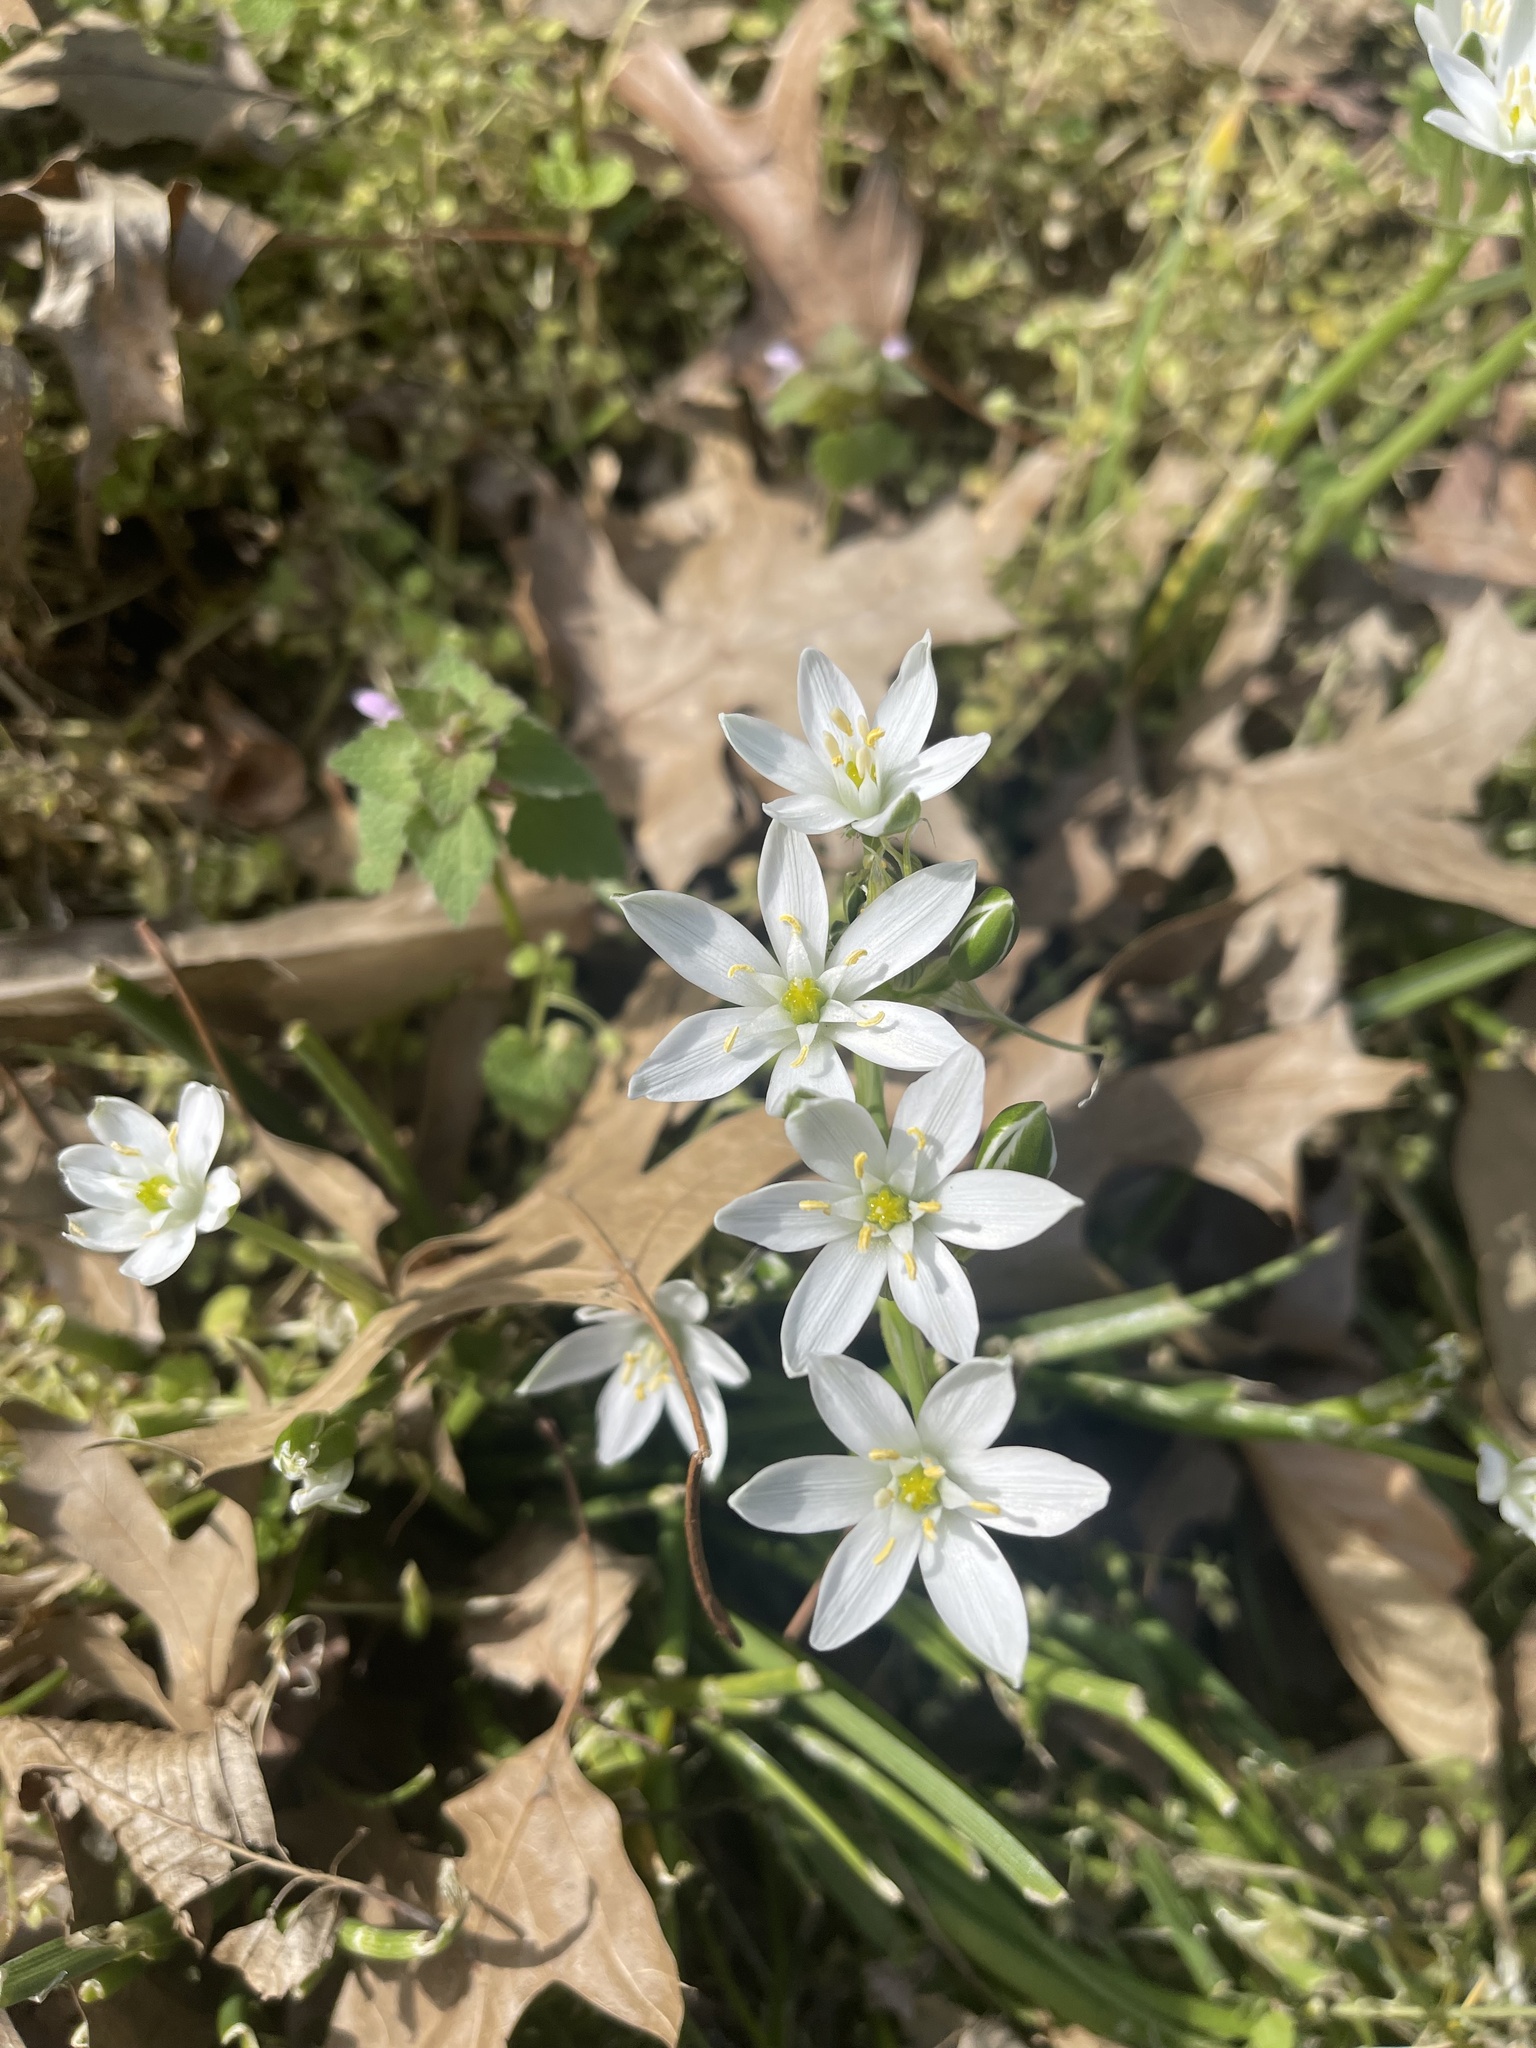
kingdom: Plantae
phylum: Tracheophyta
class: Liliopsida
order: Asparagales
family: Asparagaceae
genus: Ornithogalum
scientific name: Ornithogalum umbellatum
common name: Garden star-of-bethlehem
